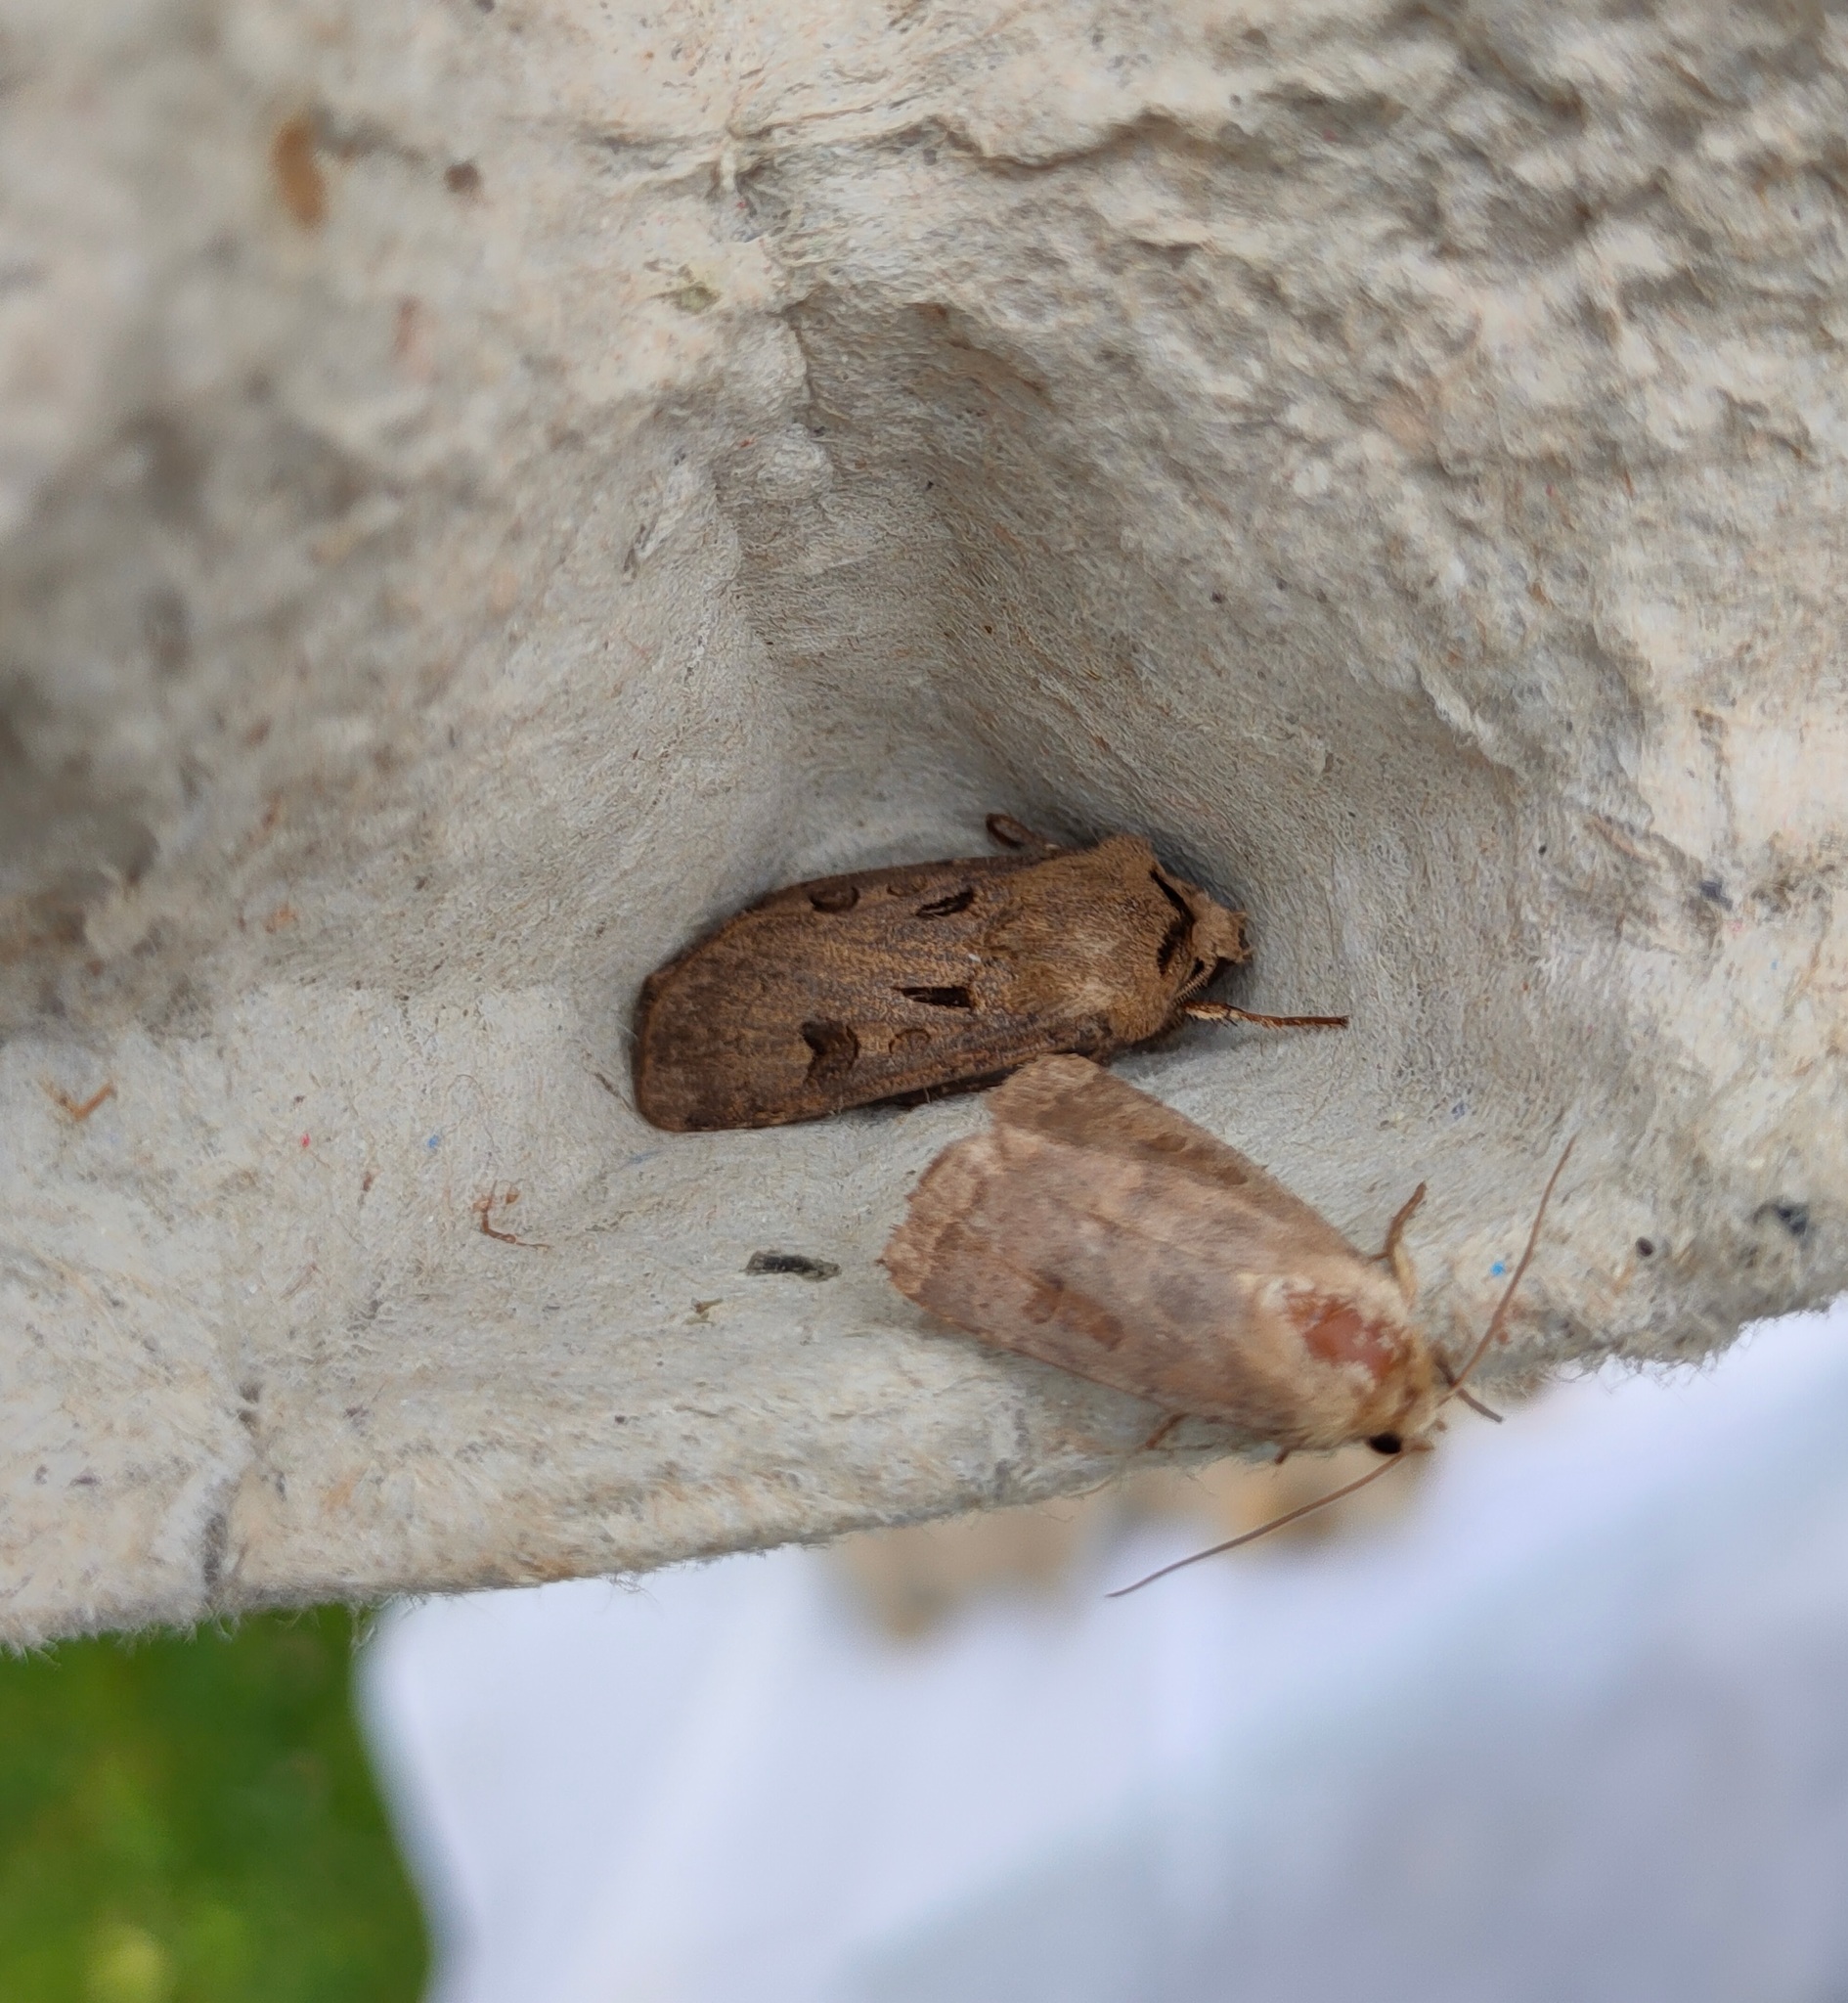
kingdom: Animalia
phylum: Arthropoda
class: Insecta
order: Lepidoptera
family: Noctuidae
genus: Agrotis
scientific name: Agrotis exclamationis
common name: Heart and dart
